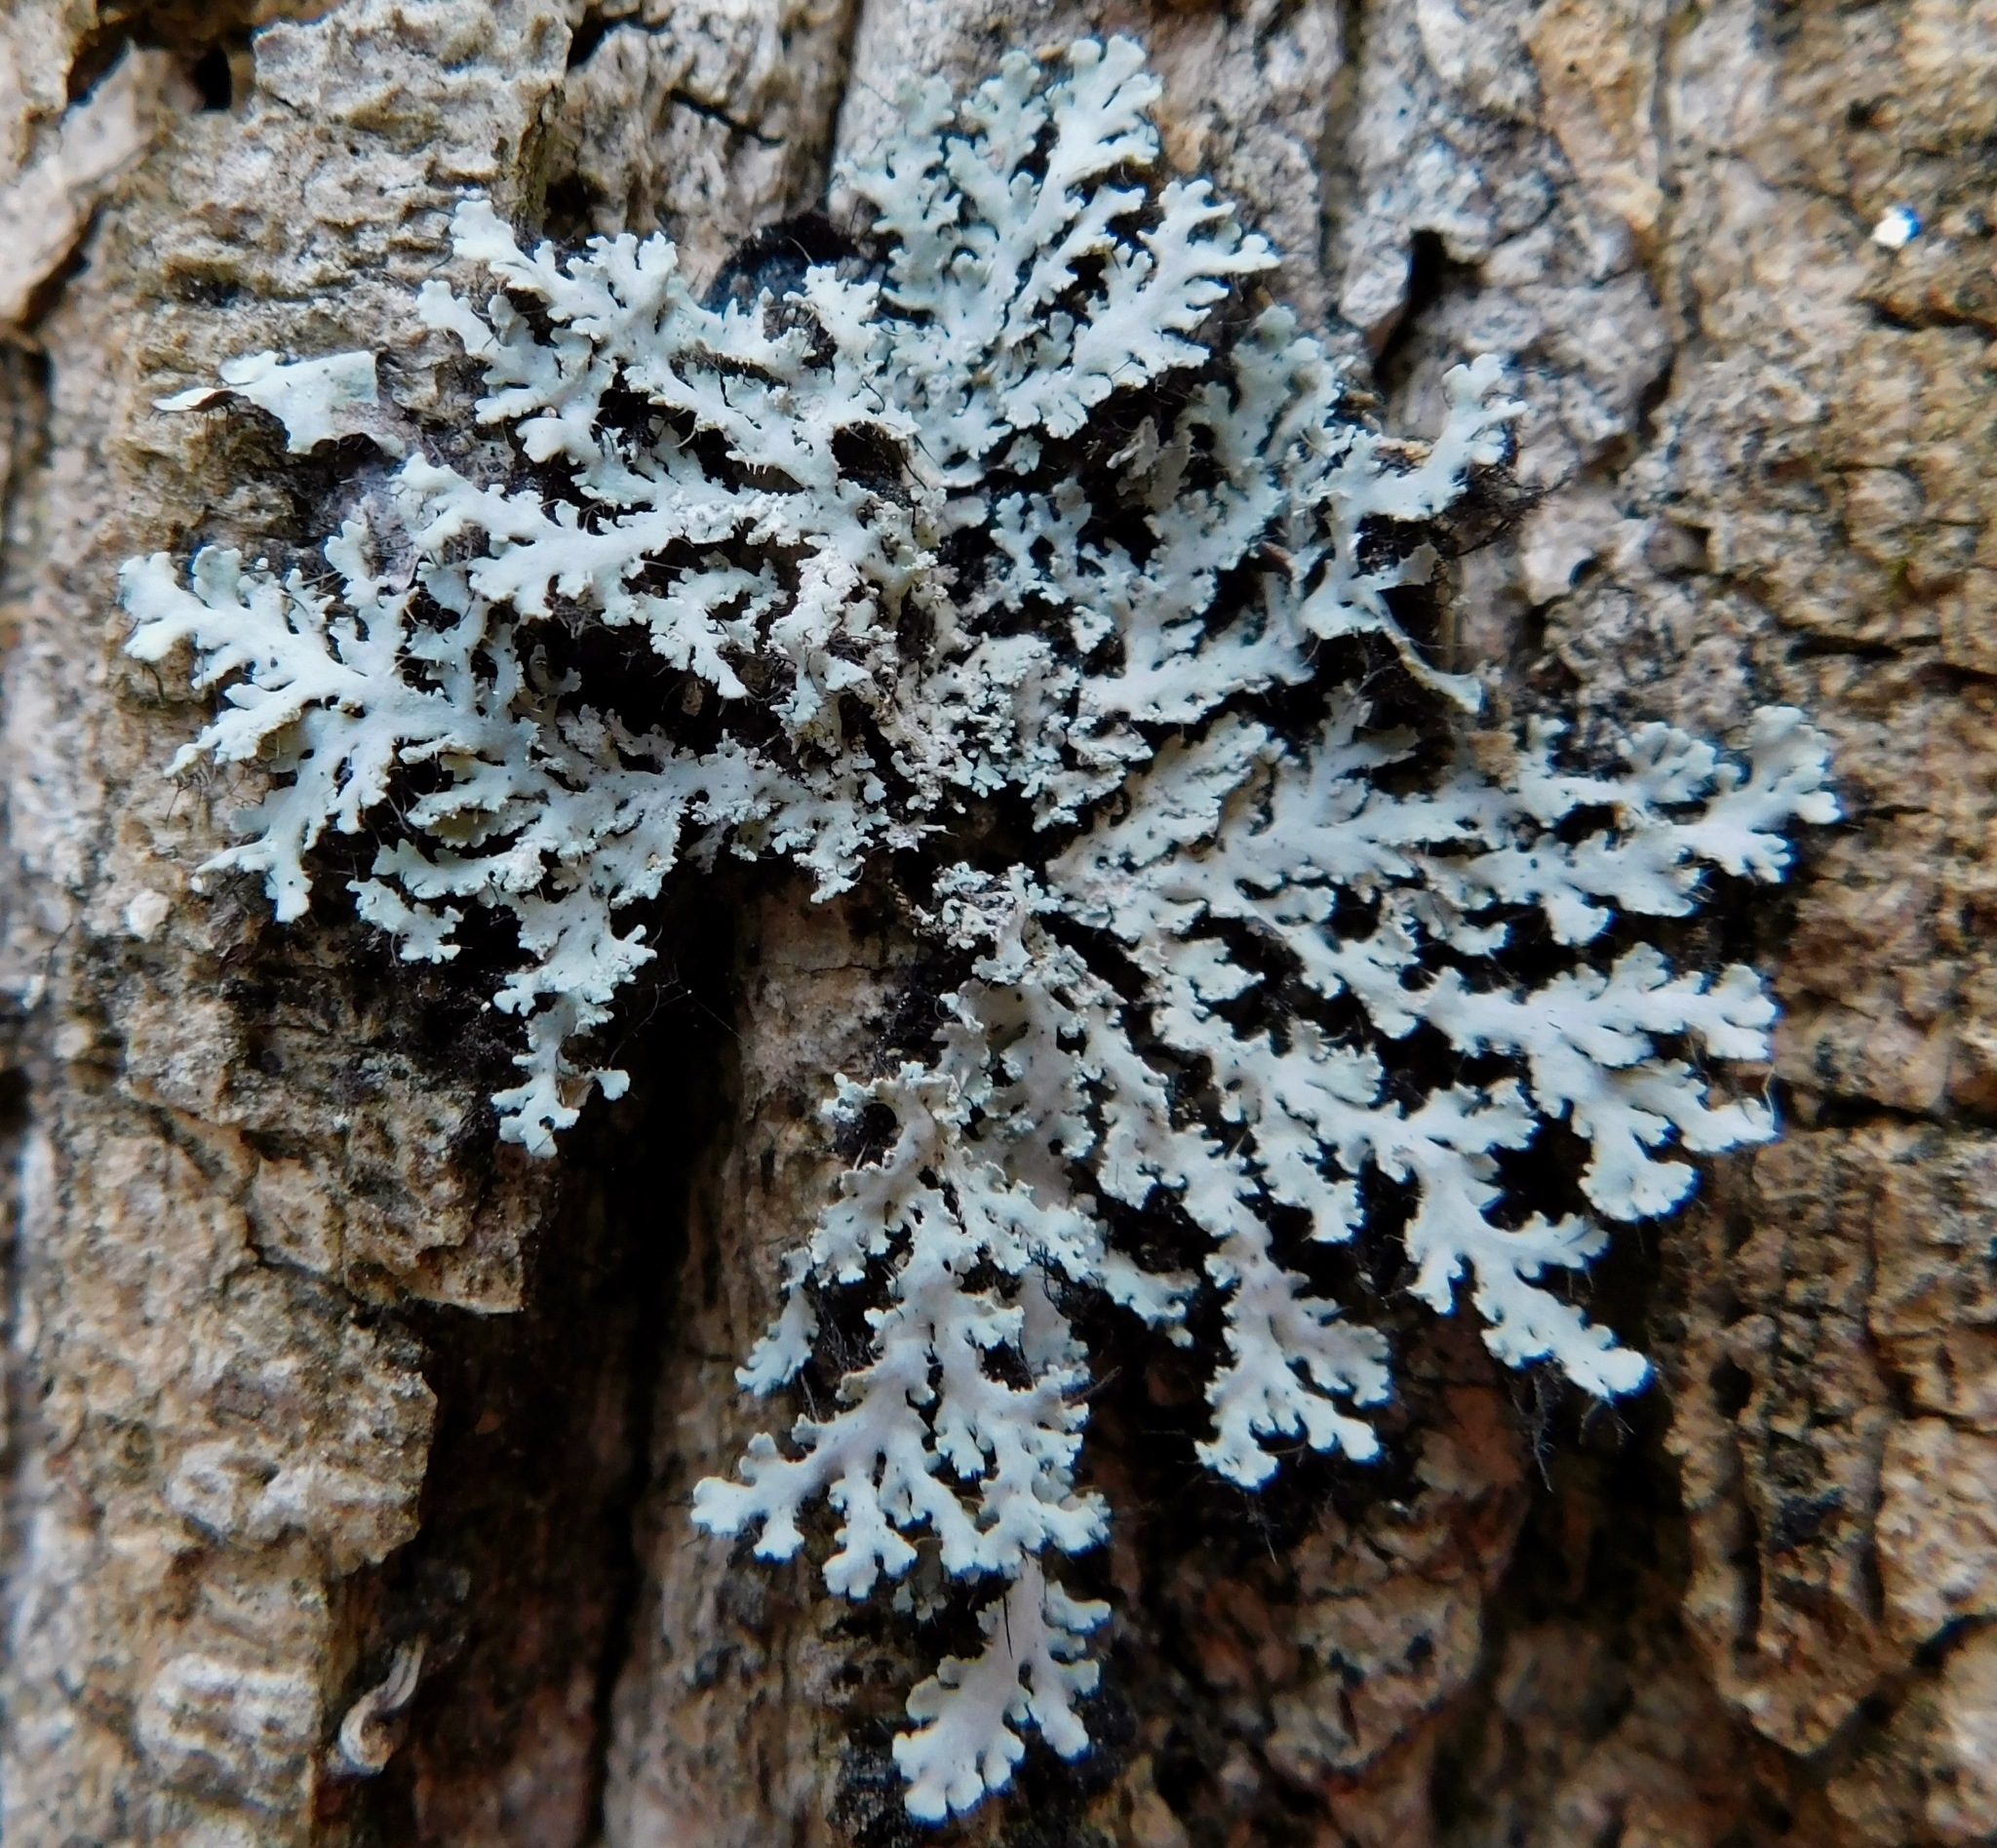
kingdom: Fungi
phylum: Ascomycota
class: Lecanoromycetes
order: Caliciales
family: Physciaceae
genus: Heterodermia
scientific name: Heterodermia speciosa
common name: Powdered fringe lichen
